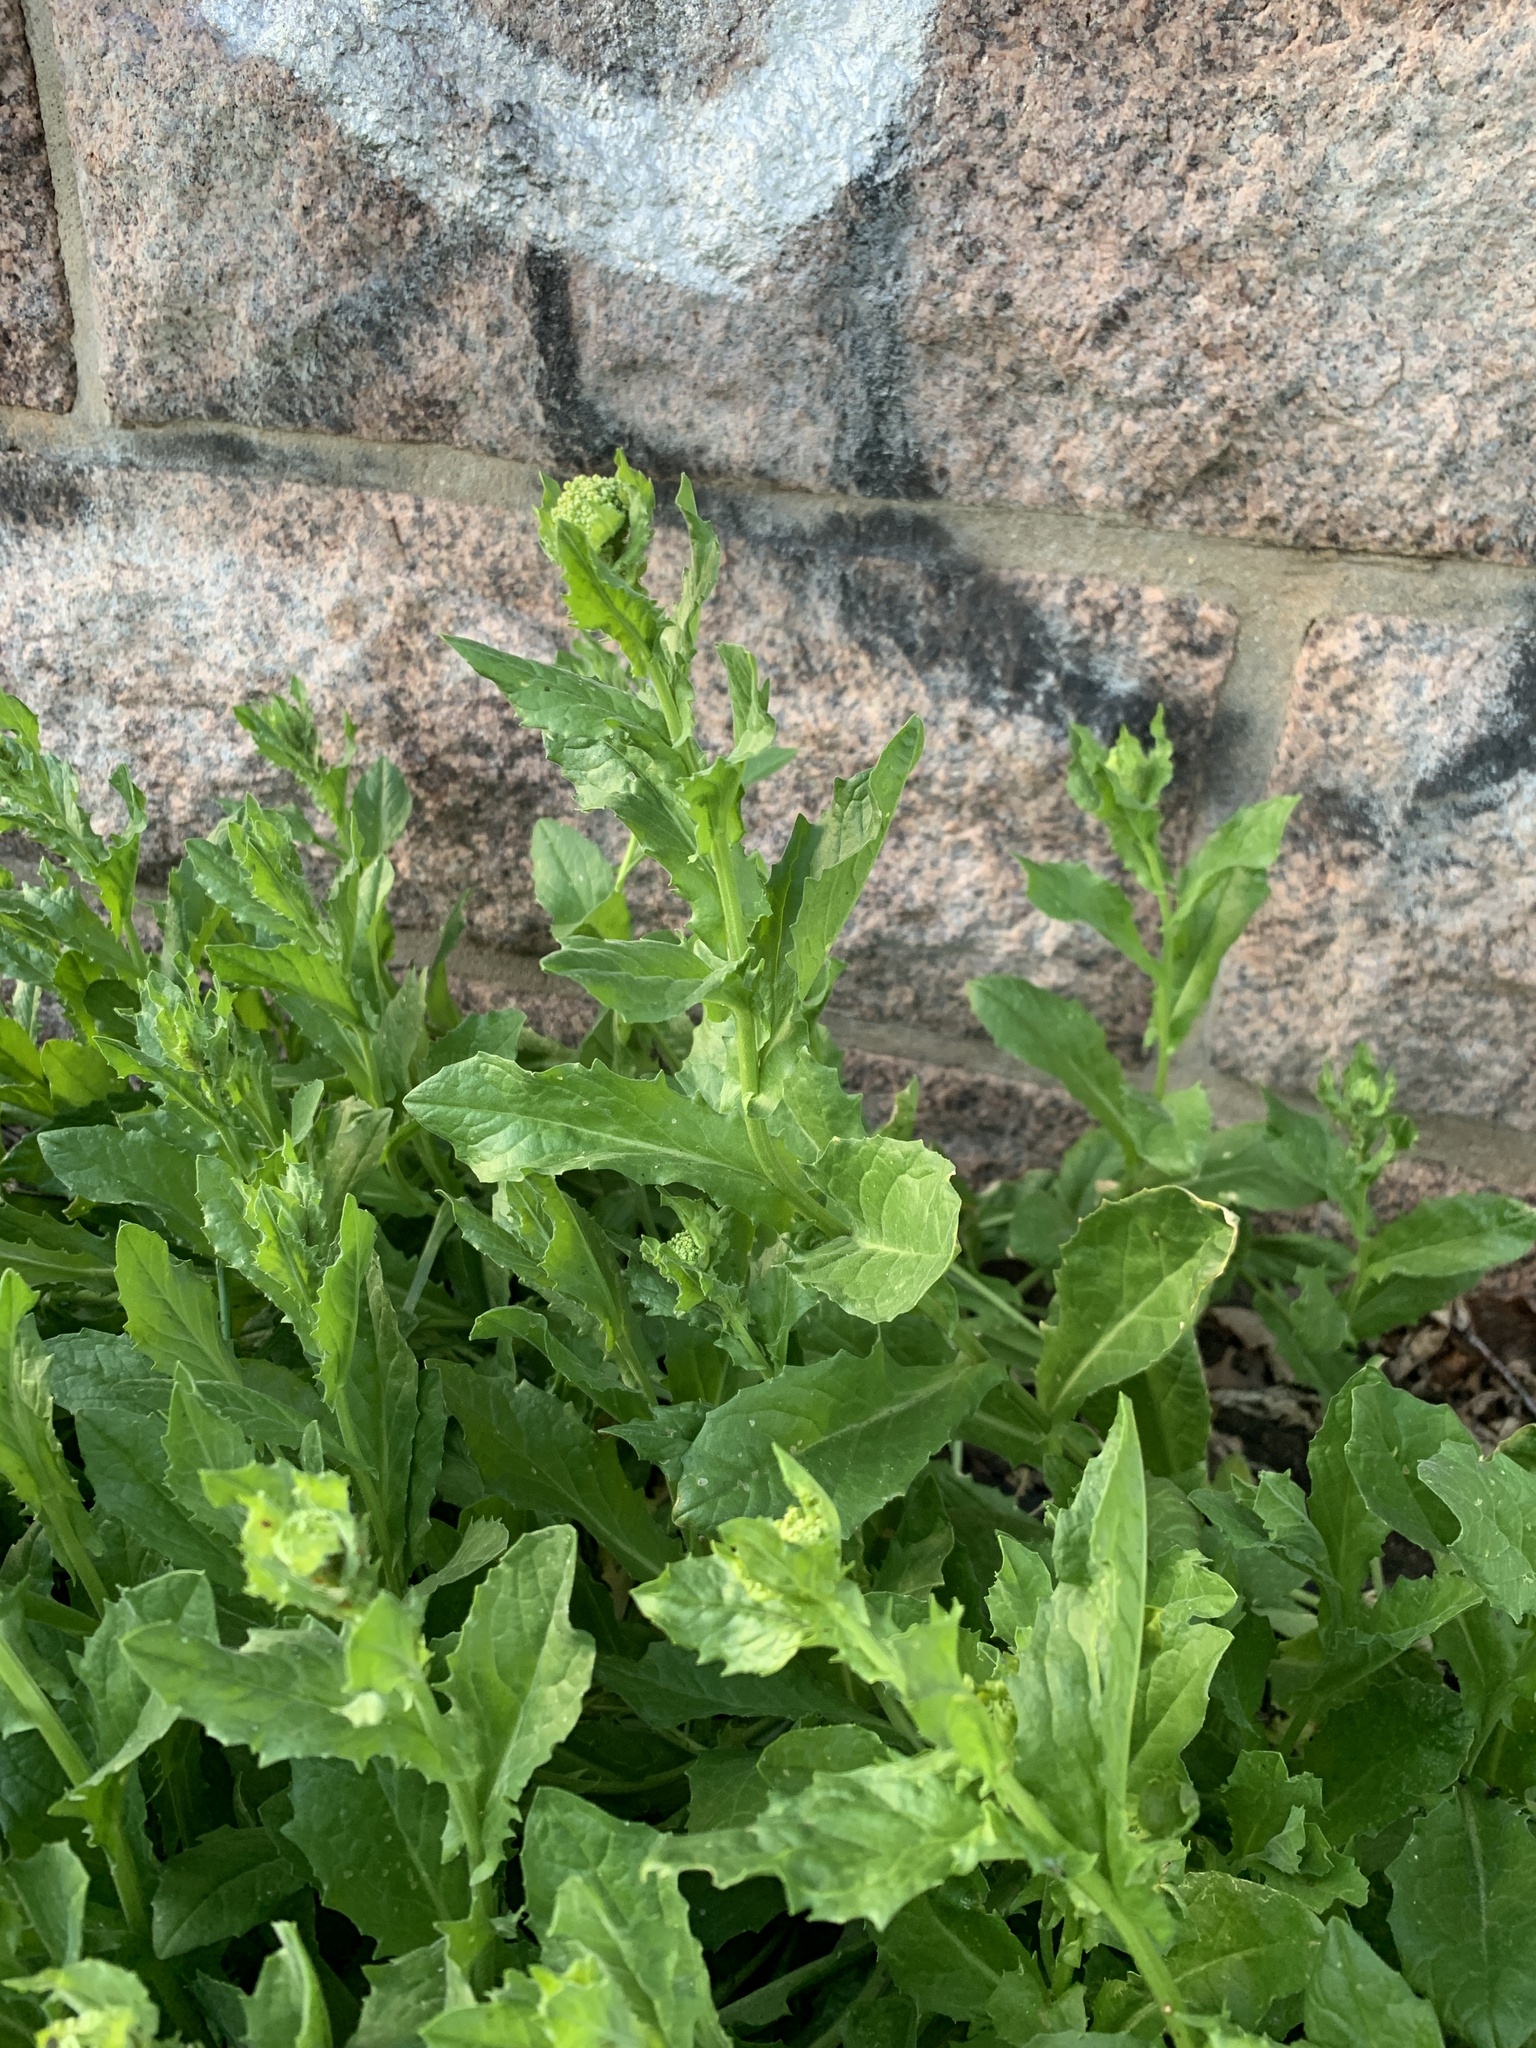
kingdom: Plantae
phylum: Tracheophyta
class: Magnoliopsida
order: Brassicales
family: Brassicaceae
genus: Lepidium
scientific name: Lepidium draba
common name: Hoary cress
